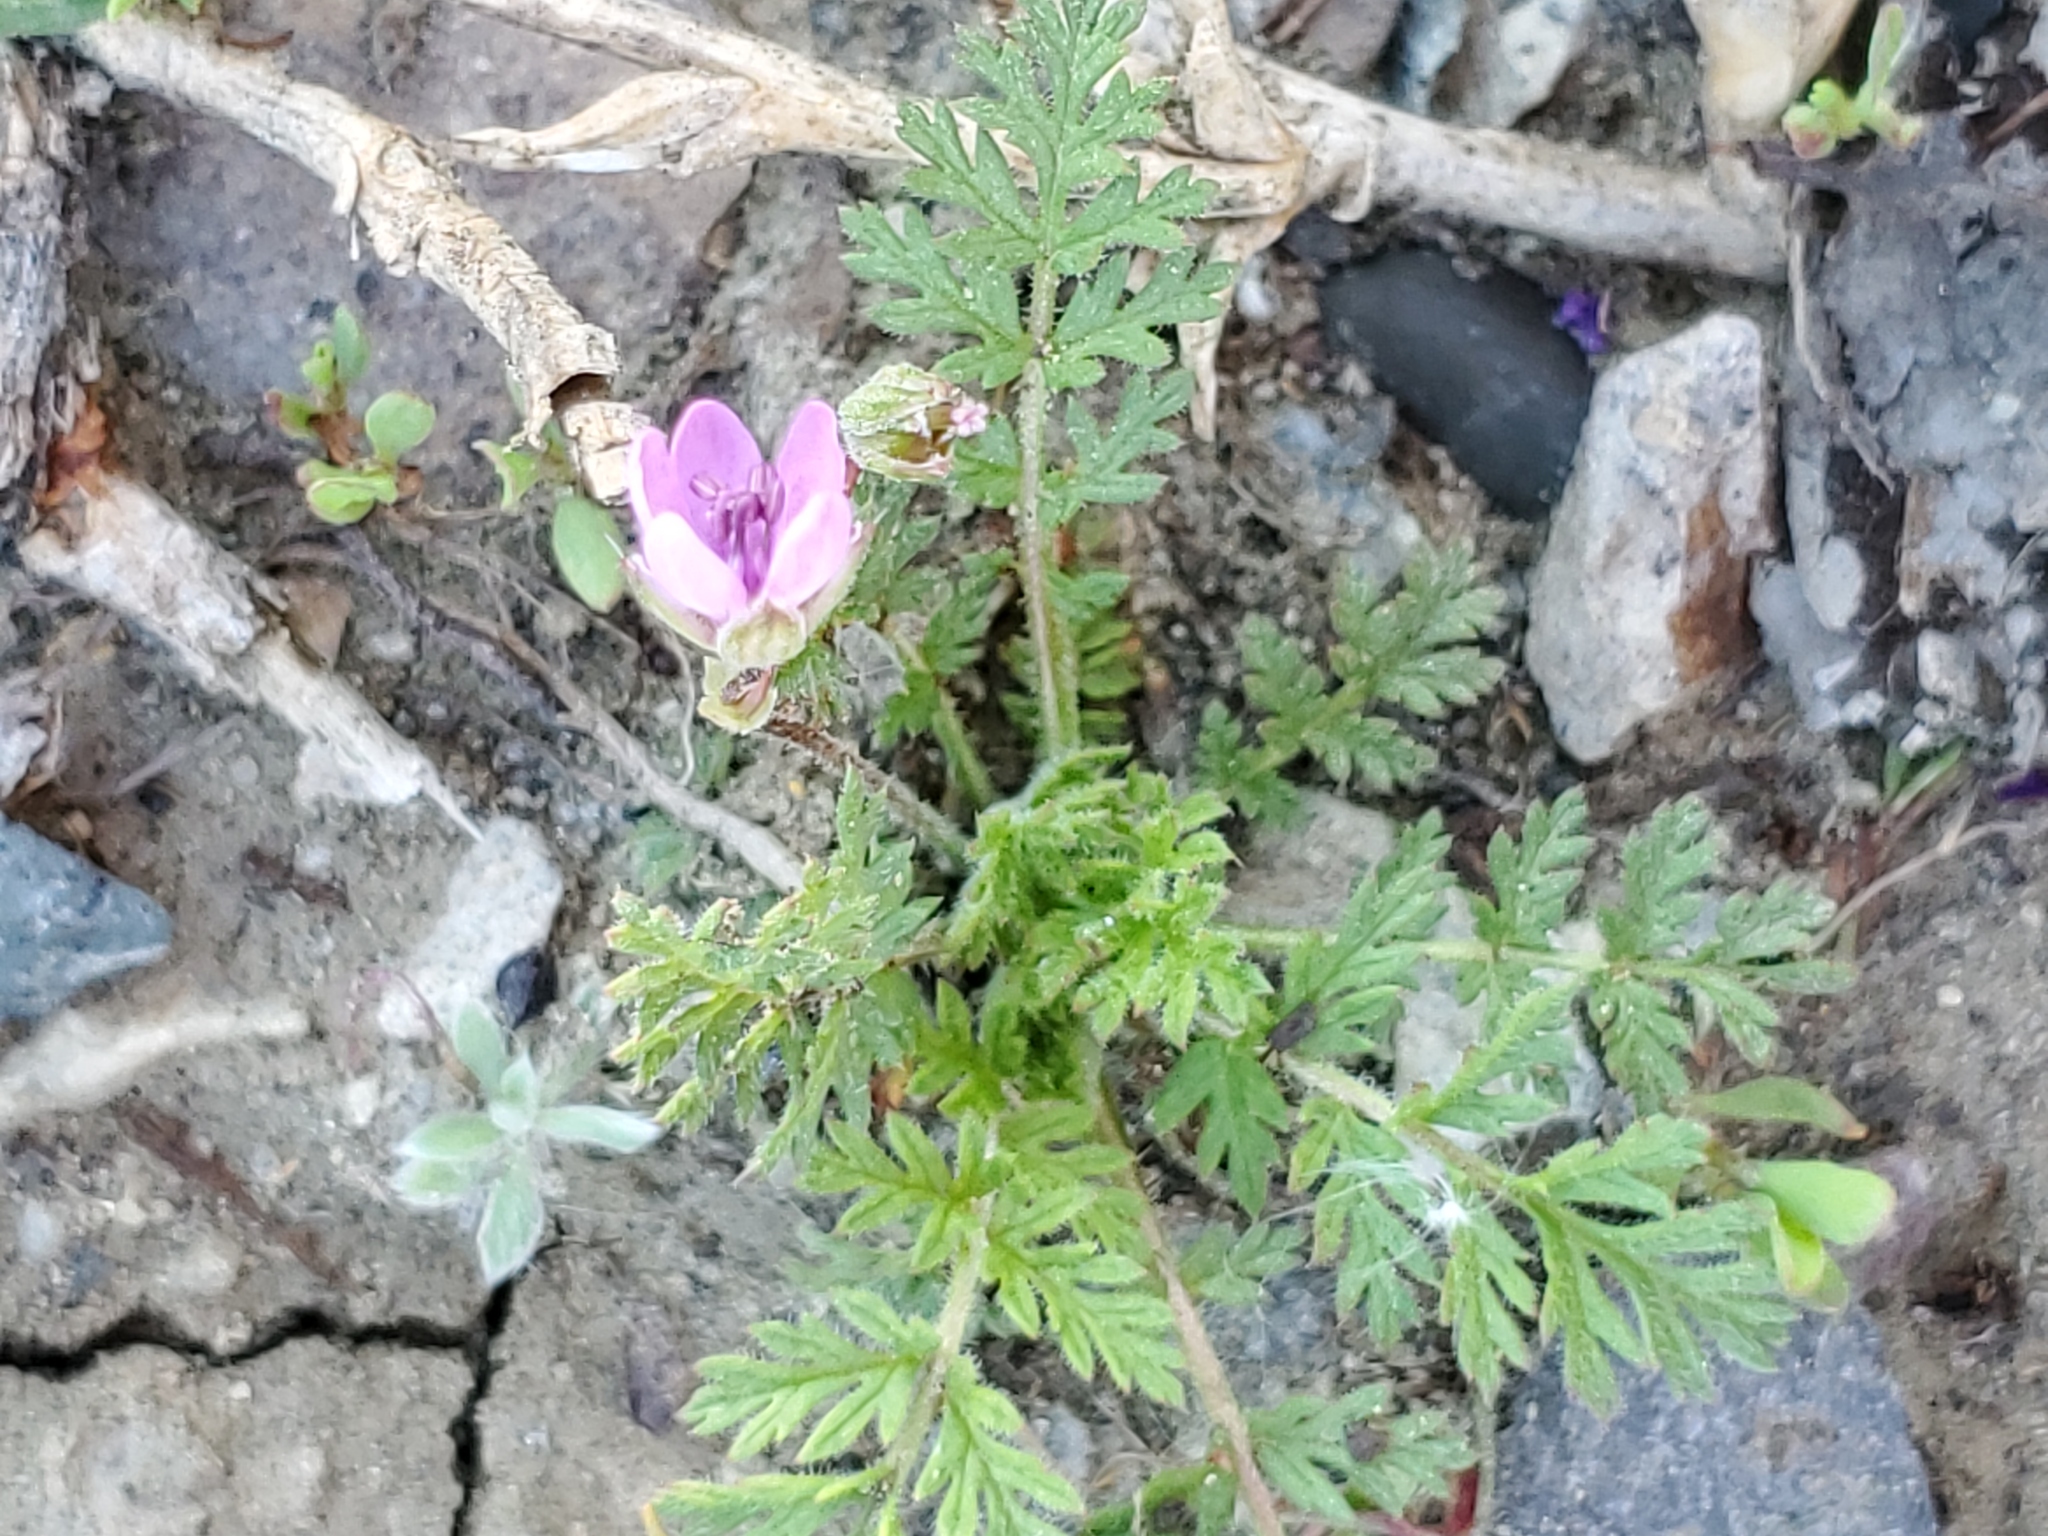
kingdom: Plantae
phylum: Tracheophyta
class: Magnoliopsida
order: Geraniales
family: Geraniaceae
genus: Erodium
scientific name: Erodium cicutarium
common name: Common stork's-bill
